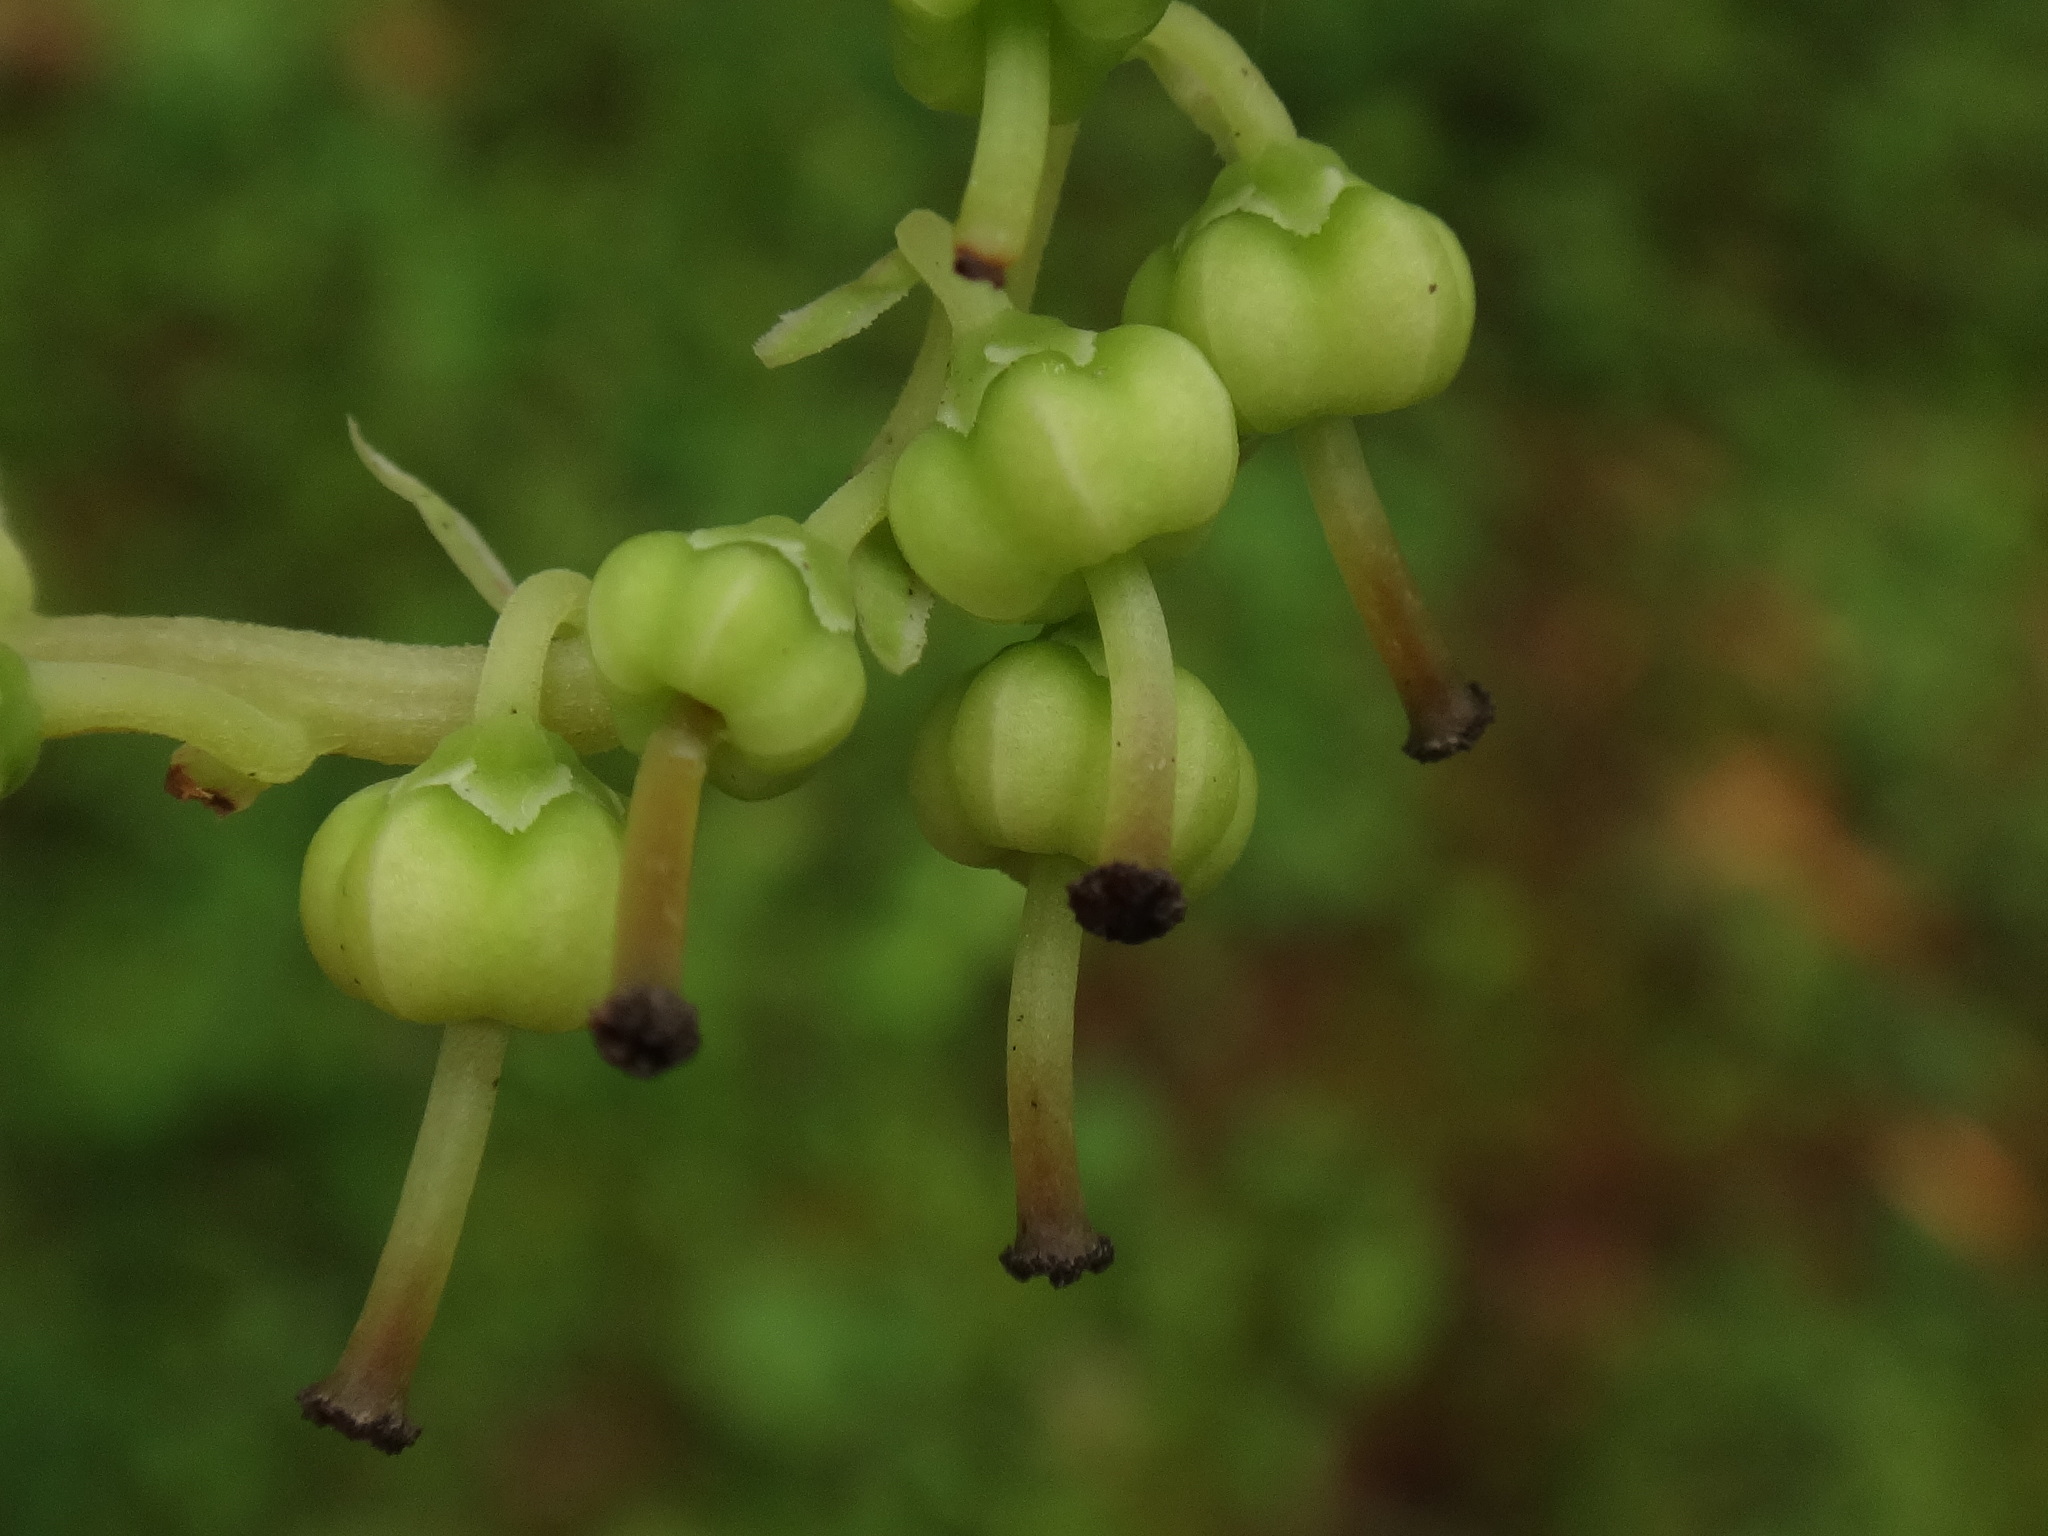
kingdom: Plantae
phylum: Tracheophyta
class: Magnoliopsida
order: Ericales
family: Ericaceae
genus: Orthilia
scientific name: Orthilia secunda
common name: One-sided orthilia
